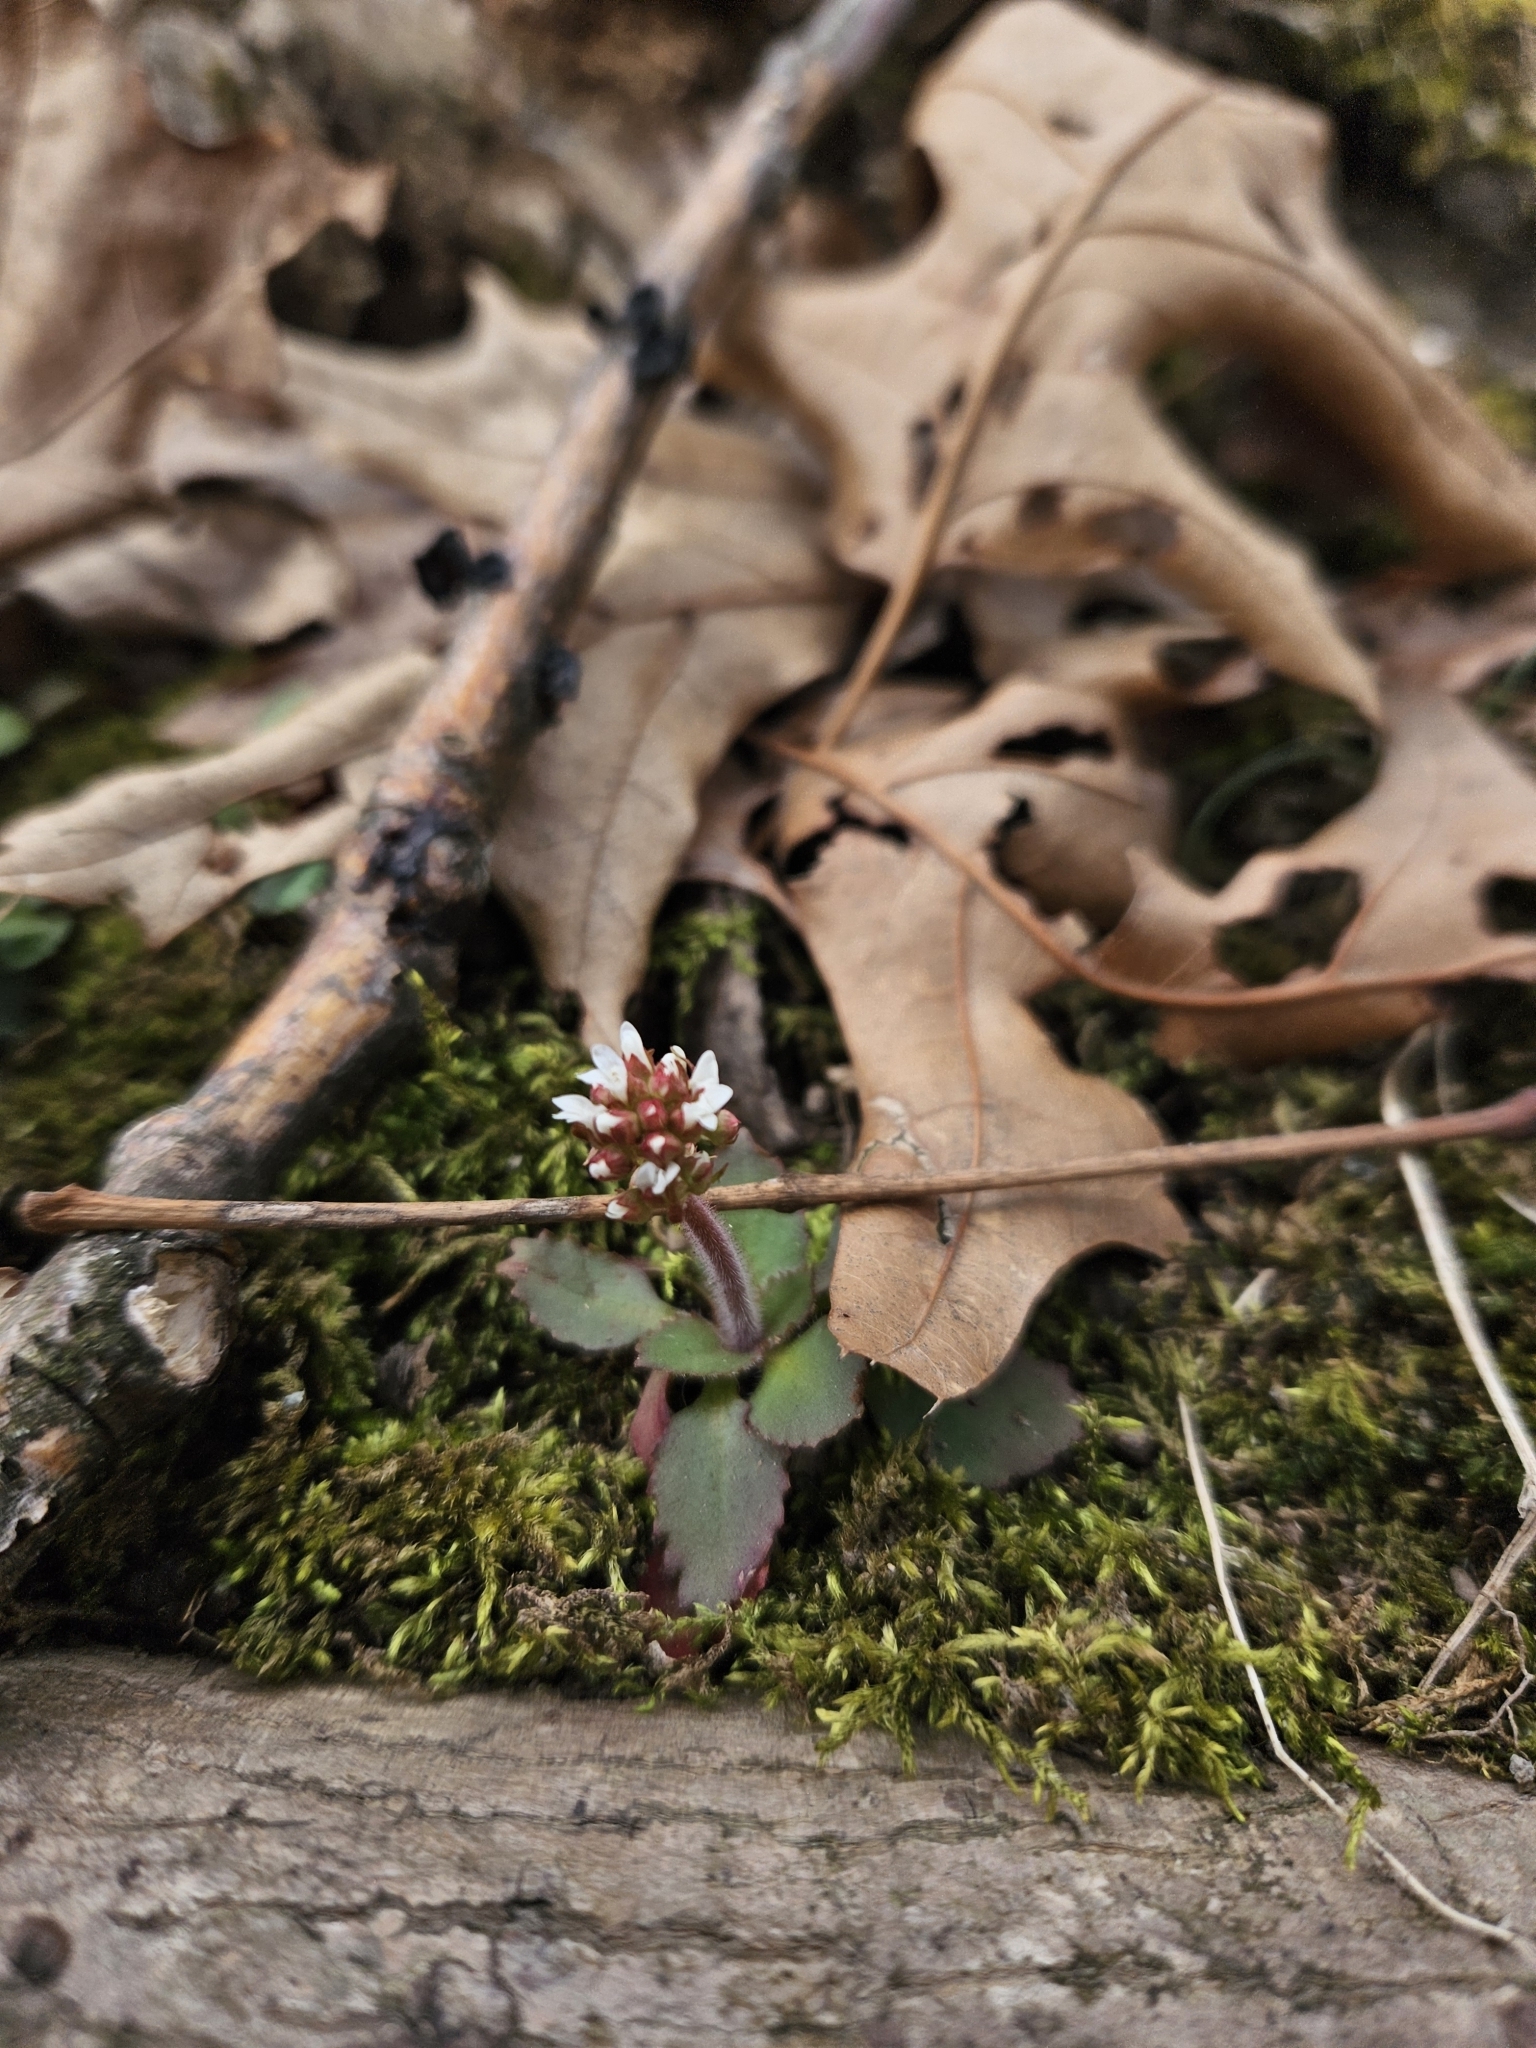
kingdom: Plantae
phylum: Tracheophyta
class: Magnoliopsida
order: Saxifragales
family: Saxifragaceae
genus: Micranthes
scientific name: Micranthes virginiensis
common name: Early saxifrage
